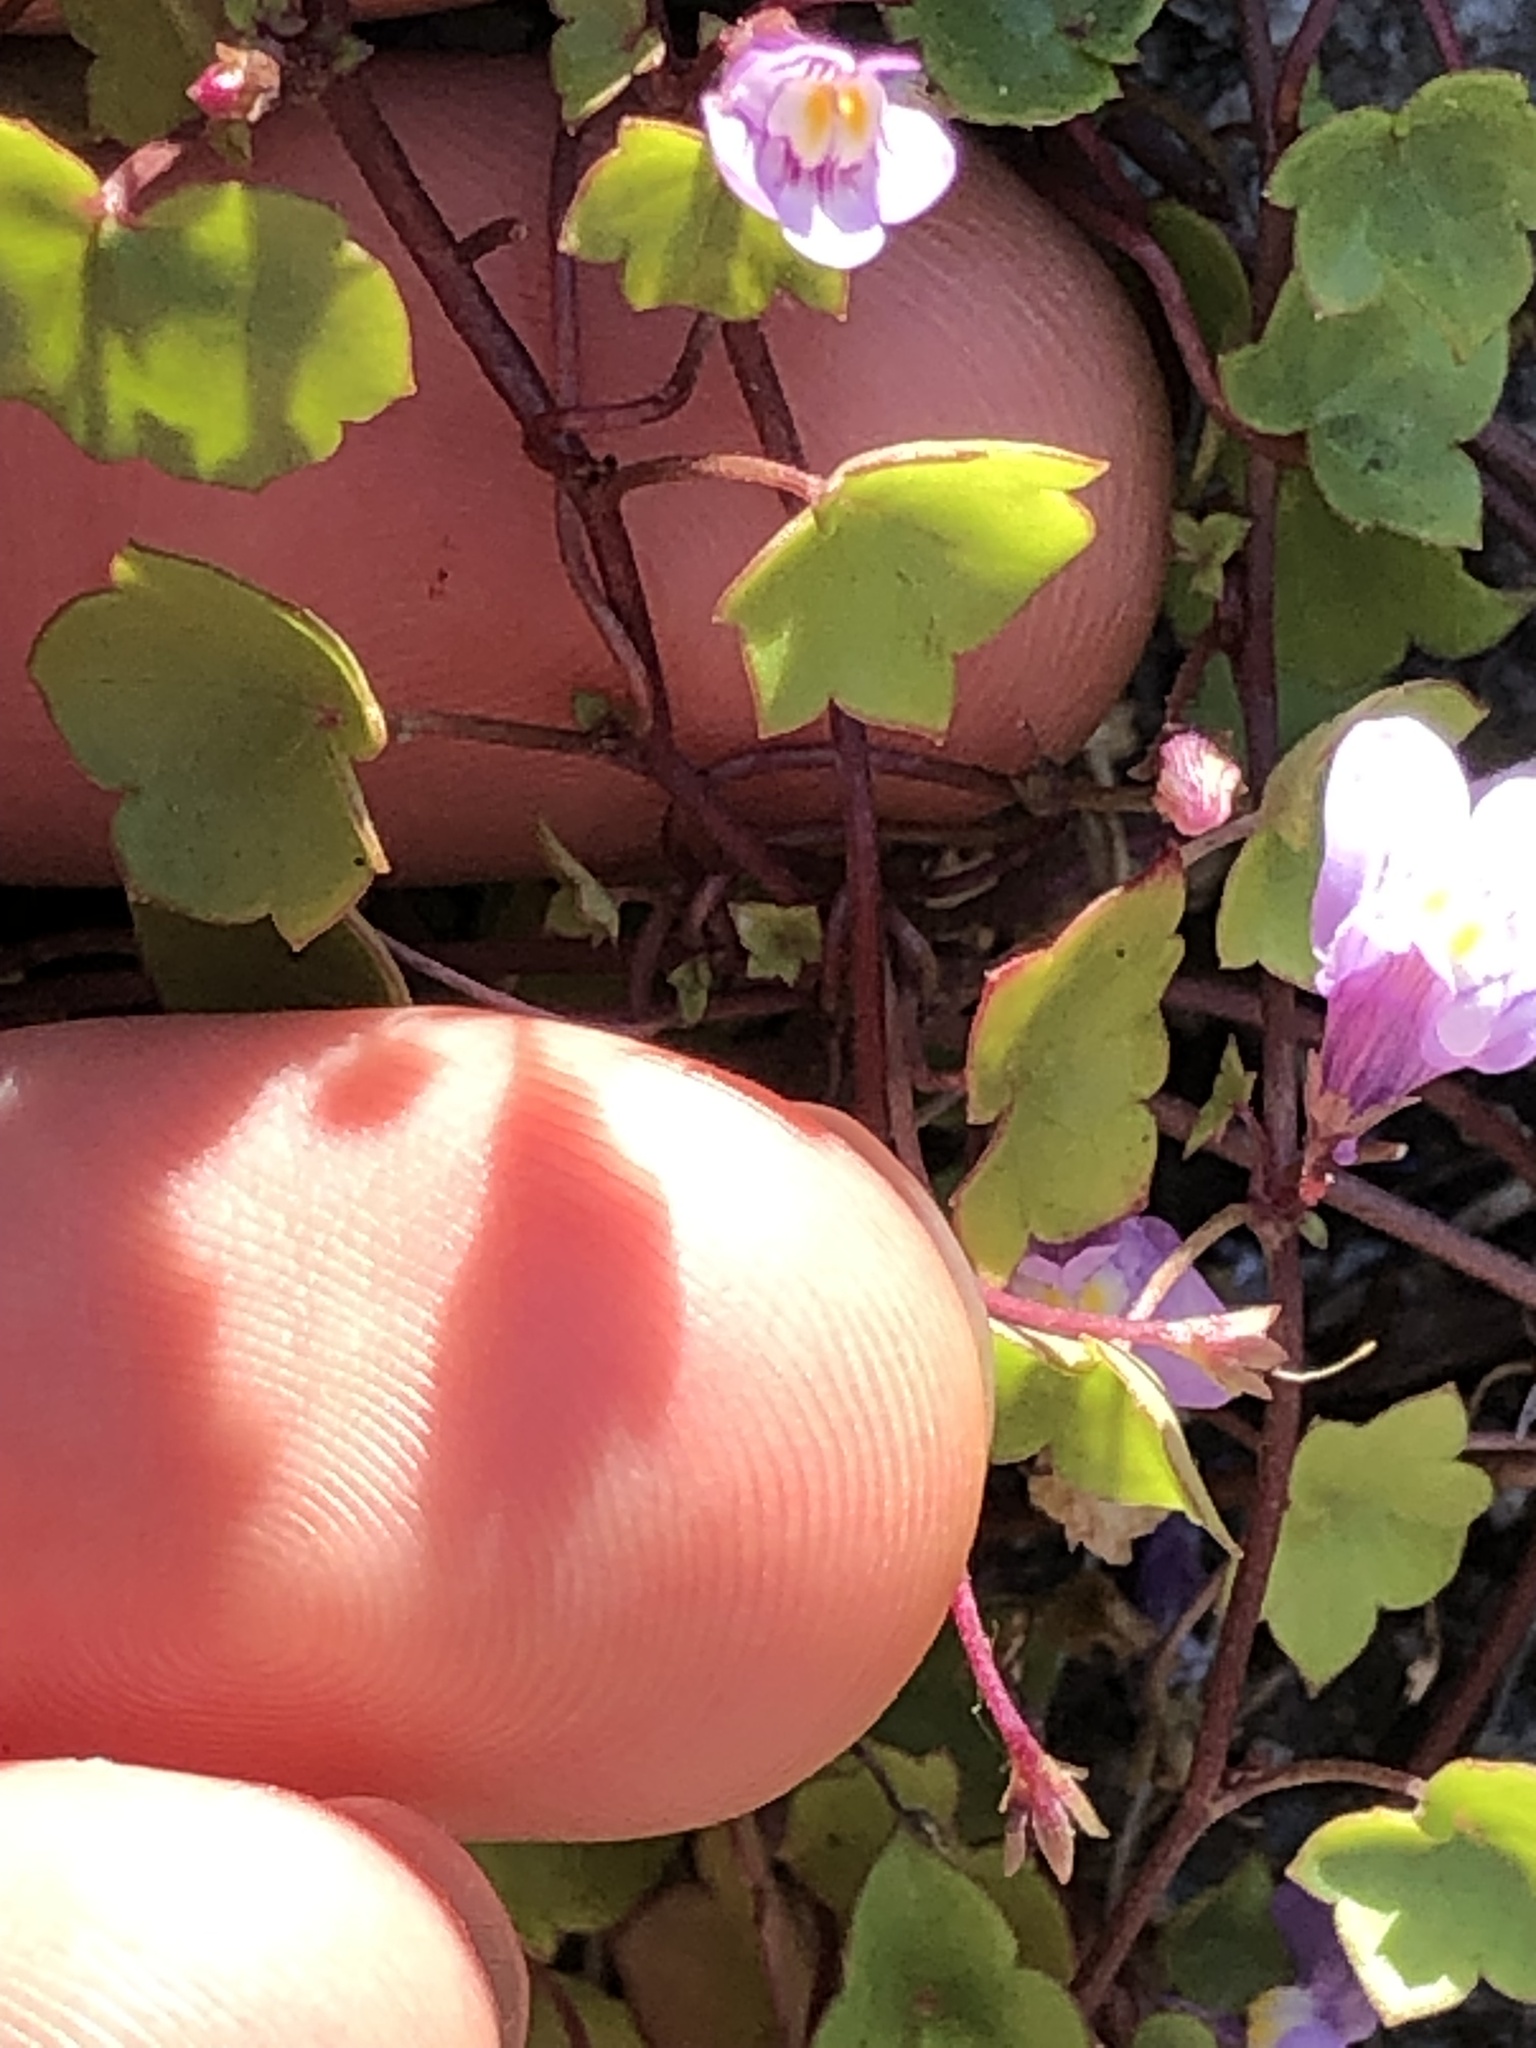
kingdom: Plantae
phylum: Tracheophyta
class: Magnoliopsida
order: Lamiales
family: Plantaginaceae
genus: Cymbalaria
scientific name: Cymbalaria muralis
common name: Ivy-leaved toadflax
